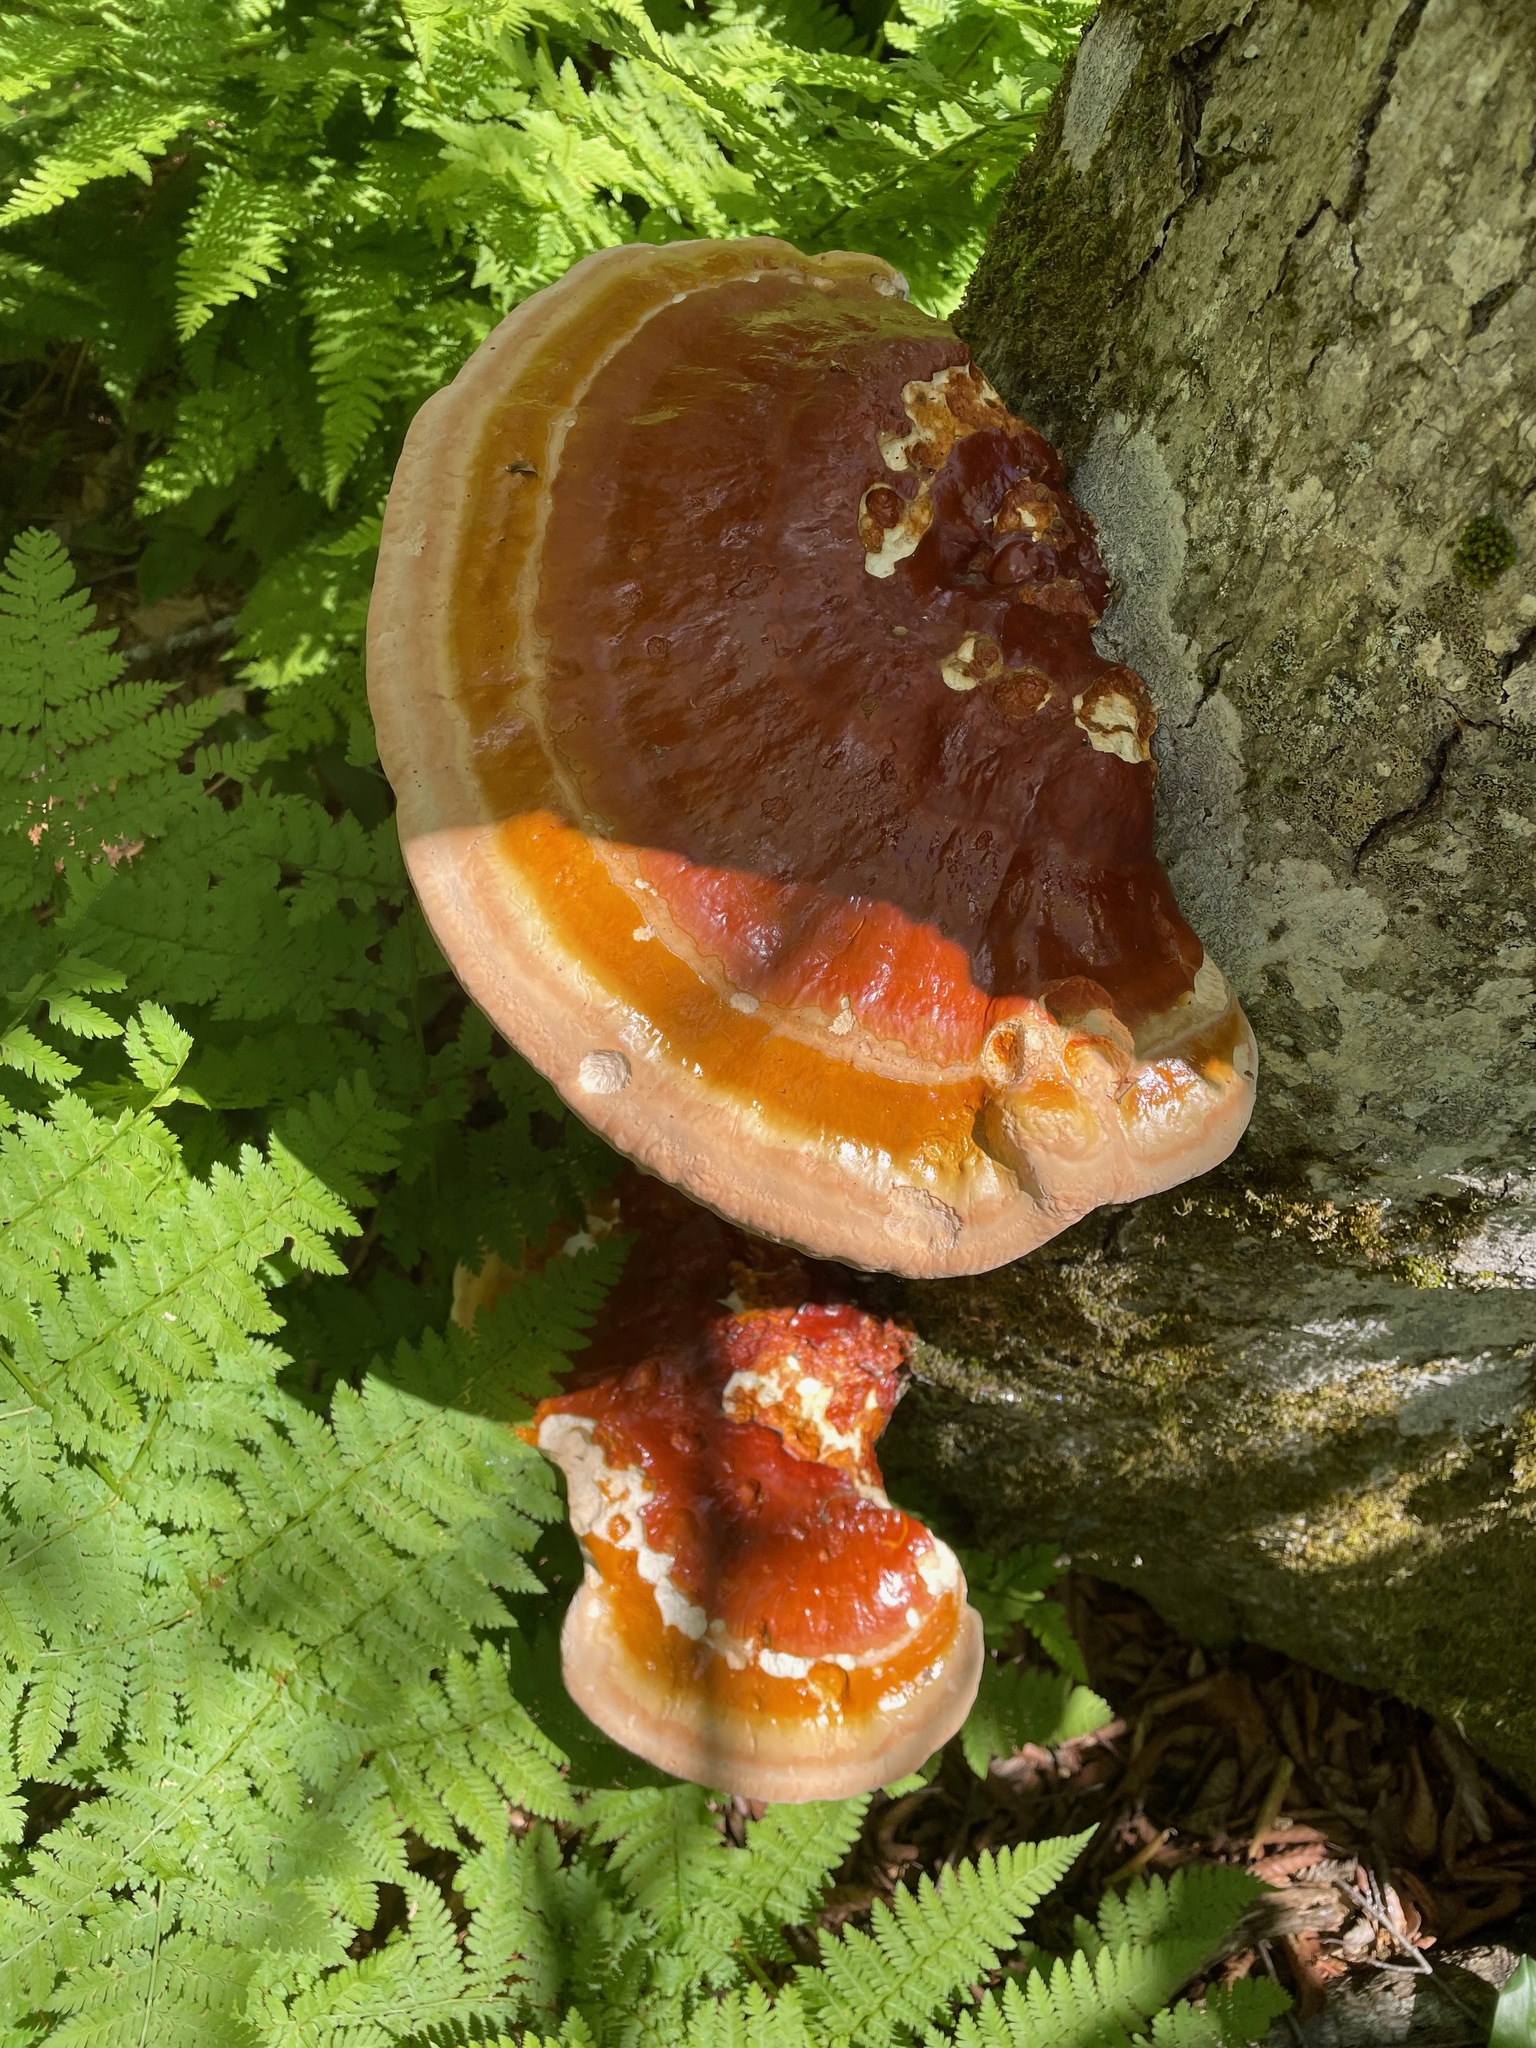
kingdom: Fungi
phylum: Basidiomycota
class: Agaricomycetes
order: Polyporales
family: Polyporaceae
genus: Ganoderma
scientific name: Ganoderma tsugae
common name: Hemlock varnish shelf
